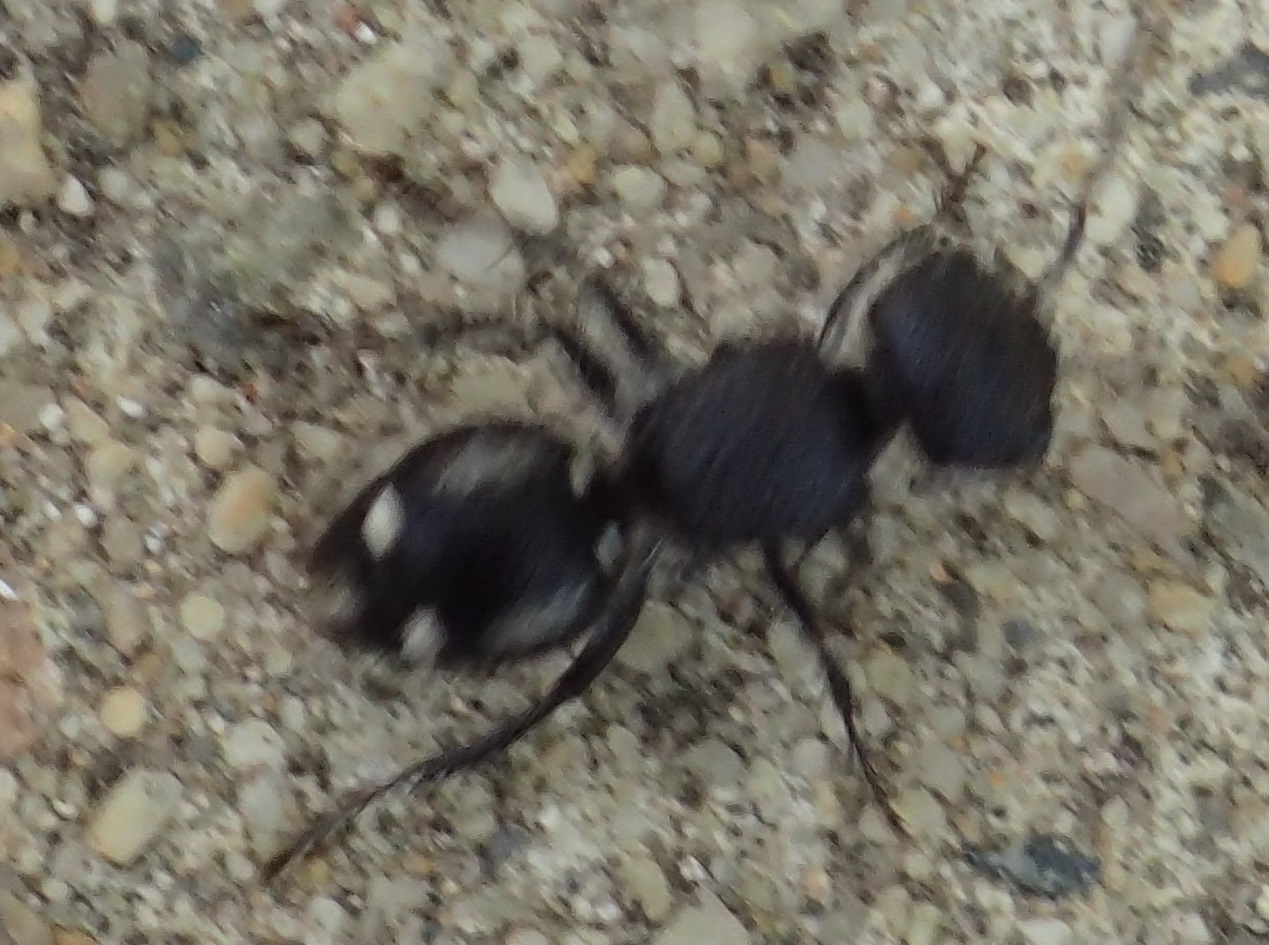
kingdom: Animalia
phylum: Arthropoda
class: Insecta
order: Hymenoptera
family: Mutillidae
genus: Ephutomorpha
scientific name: Ephutomorpha
